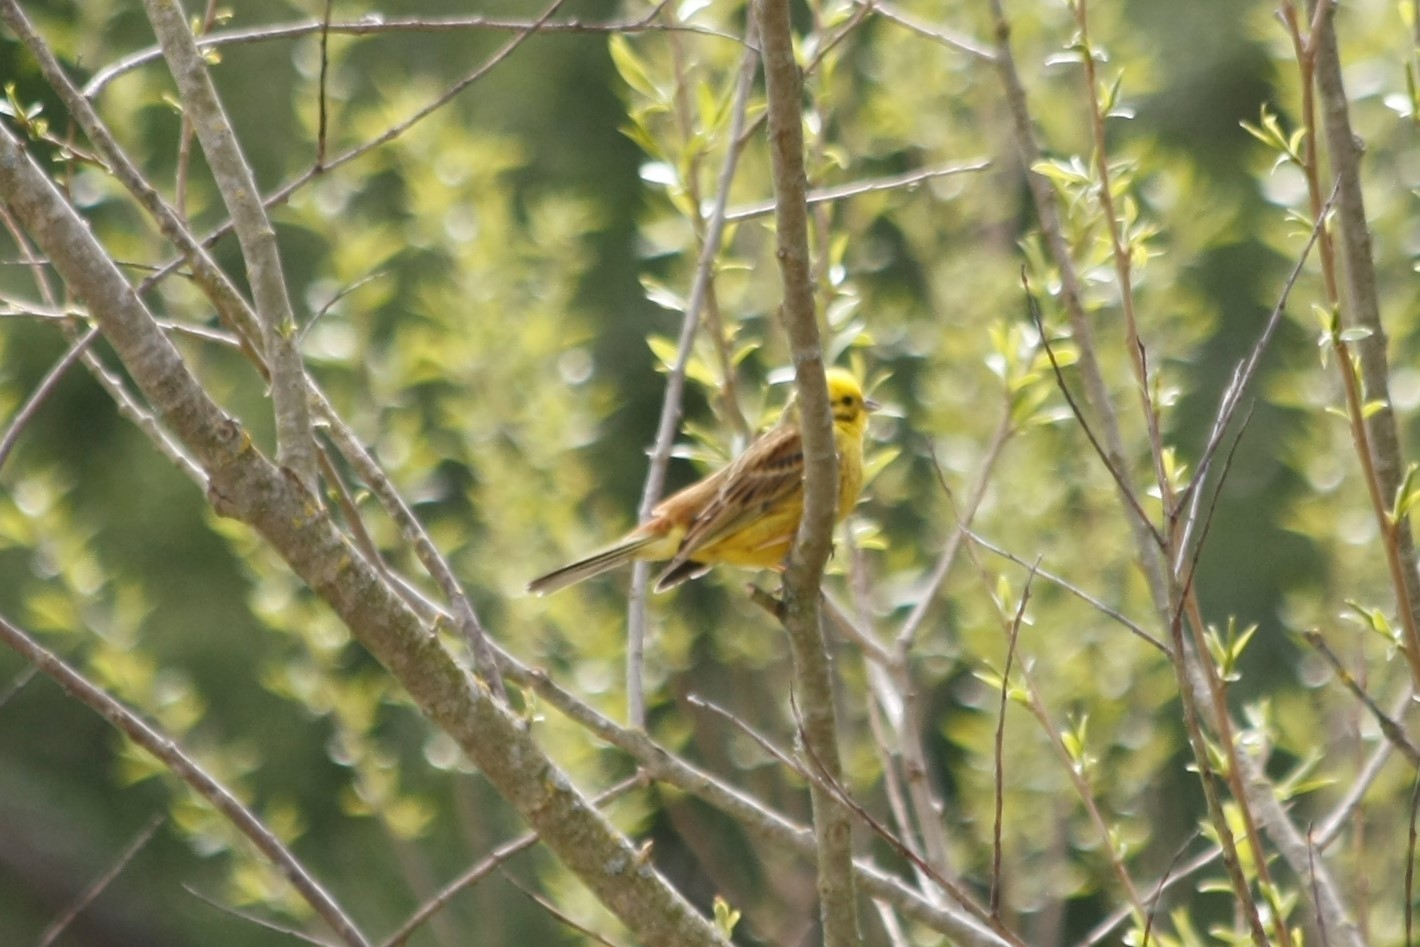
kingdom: Animalia
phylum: Chordata
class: Aves
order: Passeriformes
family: Emberizidae
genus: Emberiza
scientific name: Emberiza citrinella
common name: Yellowhammer
